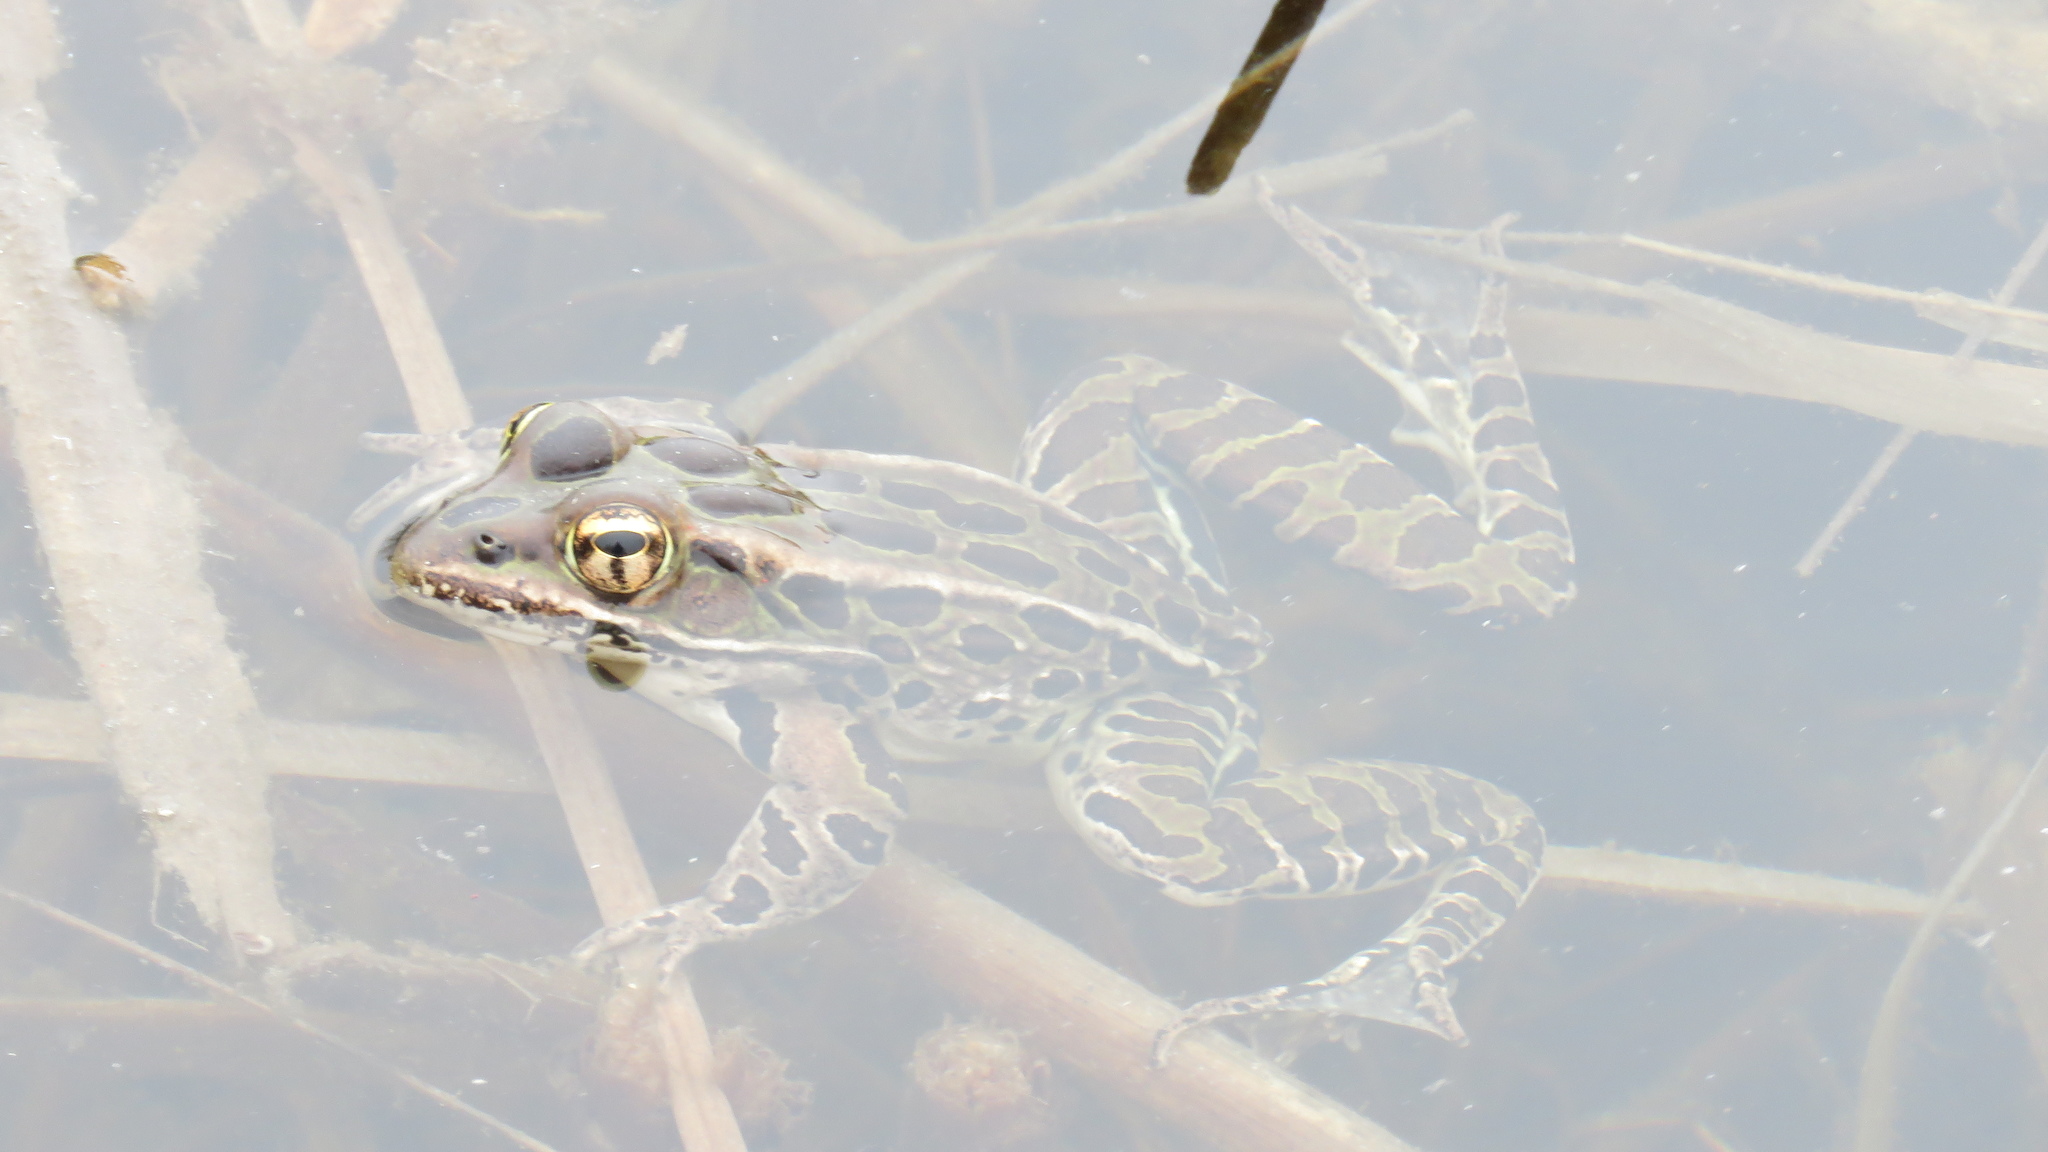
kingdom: Animalia
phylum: Chordata
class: Amphibia
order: Anura
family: Ranidae
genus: Lithobates
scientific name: Lithobates pipiens
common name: Northern leopard frog
